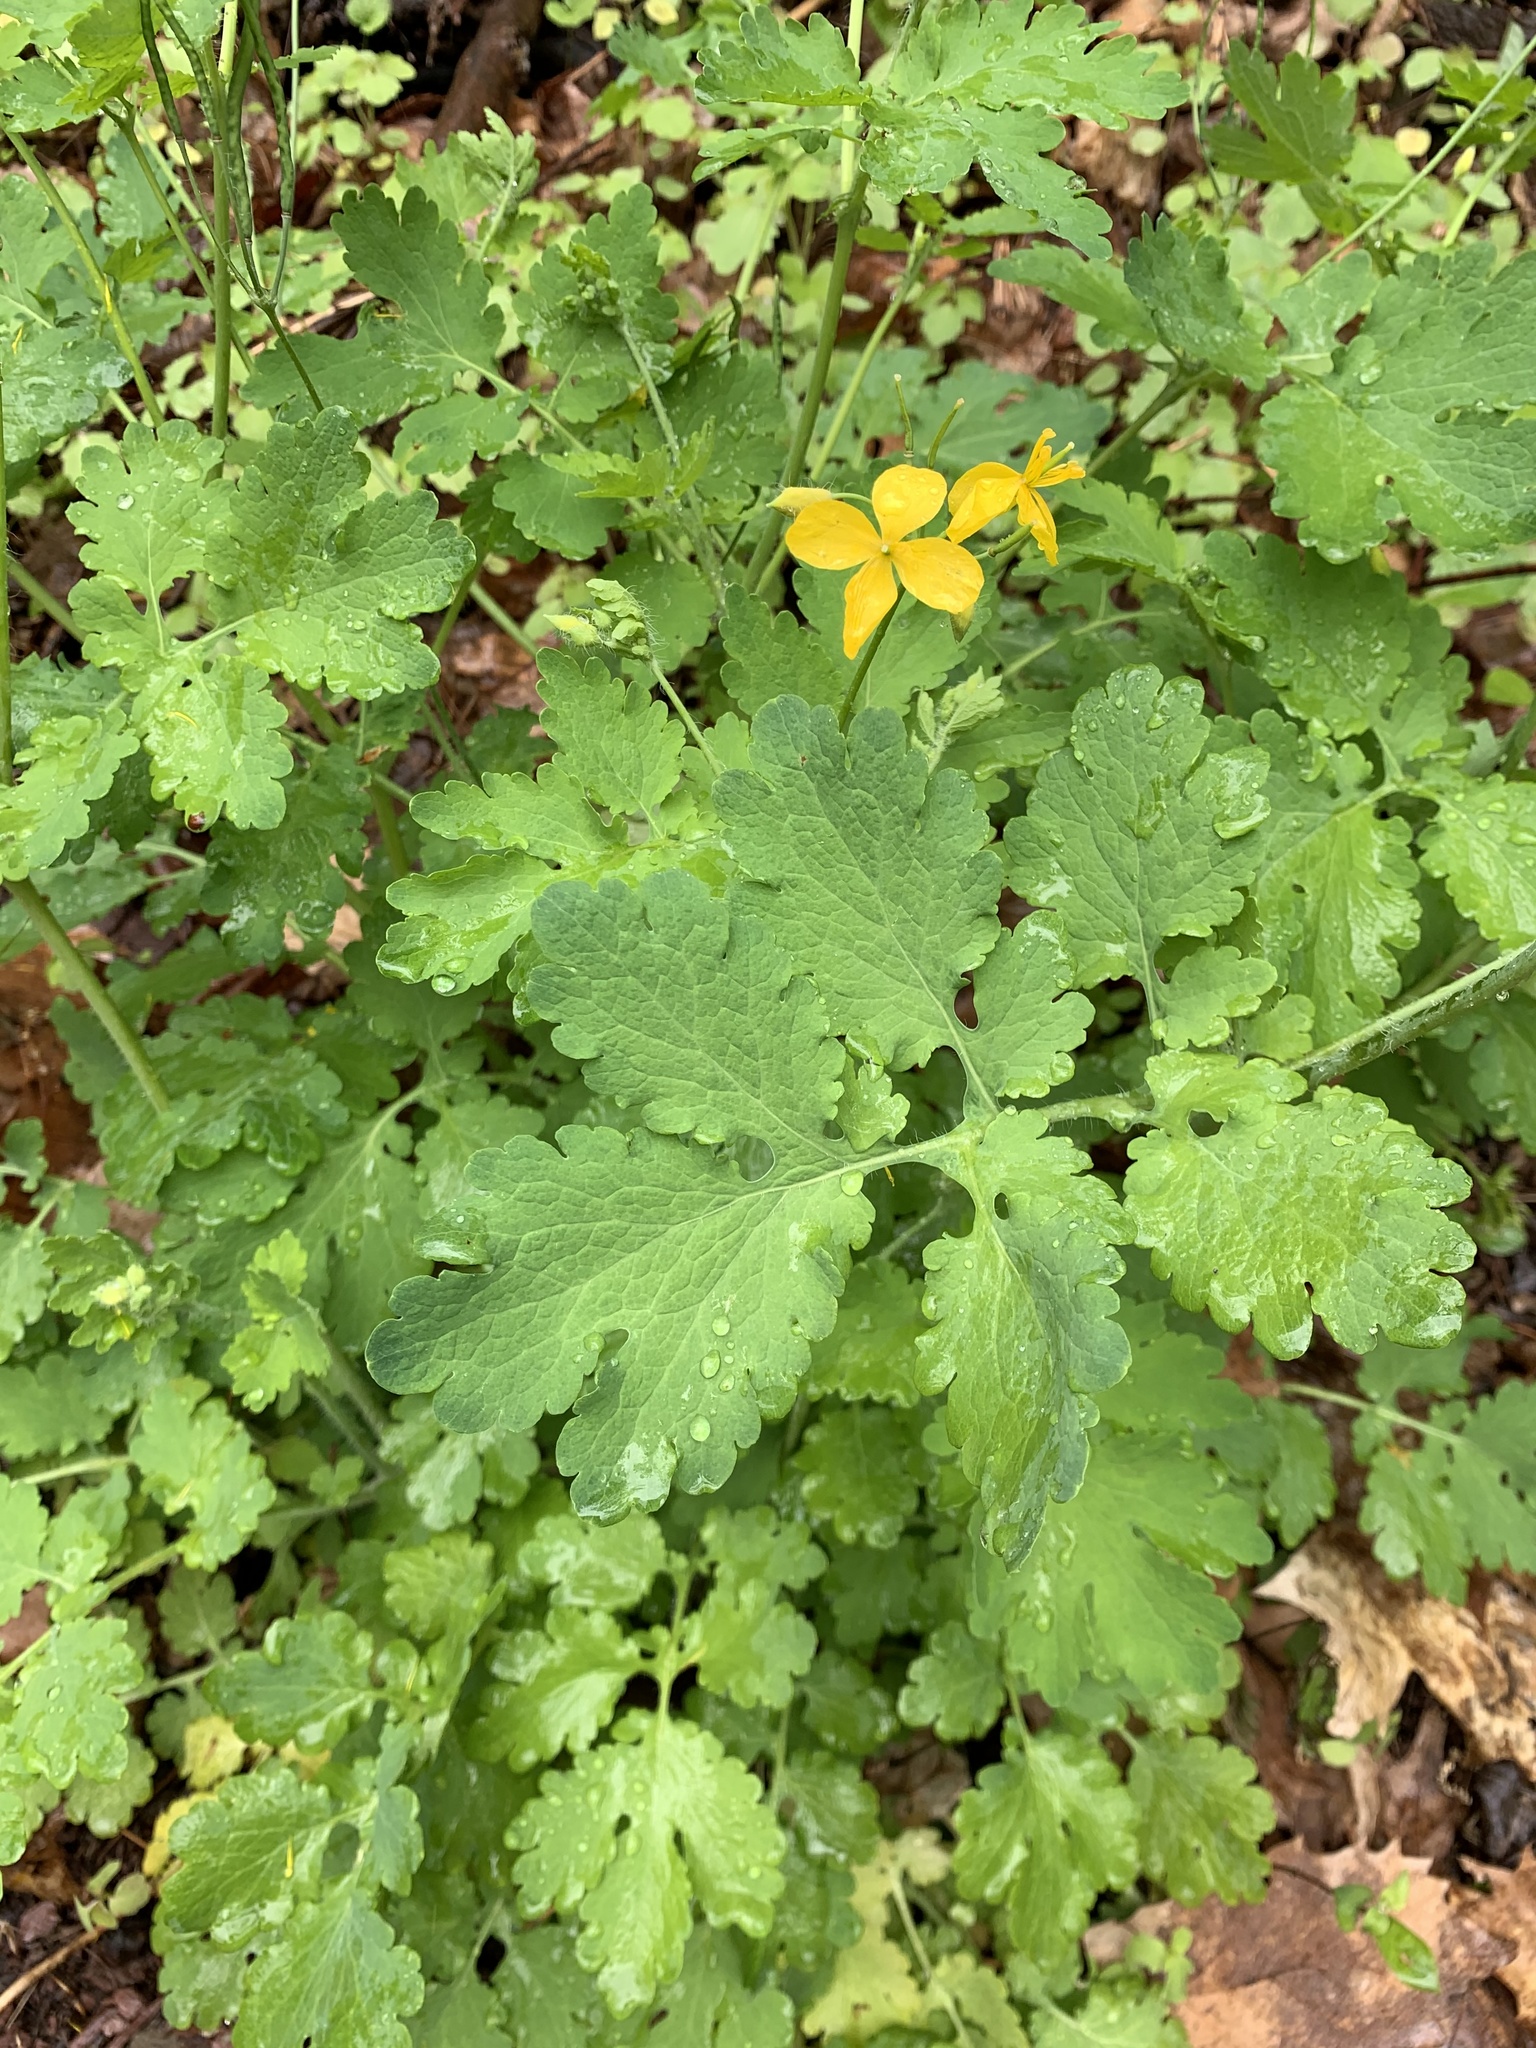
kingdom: Plantae
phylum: Tracheophyta
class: Magnoliopsida
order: Ranunculales
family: Papaveraceae
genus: Chelidonium
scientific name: Chelidonium majus
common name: Greater celandine
